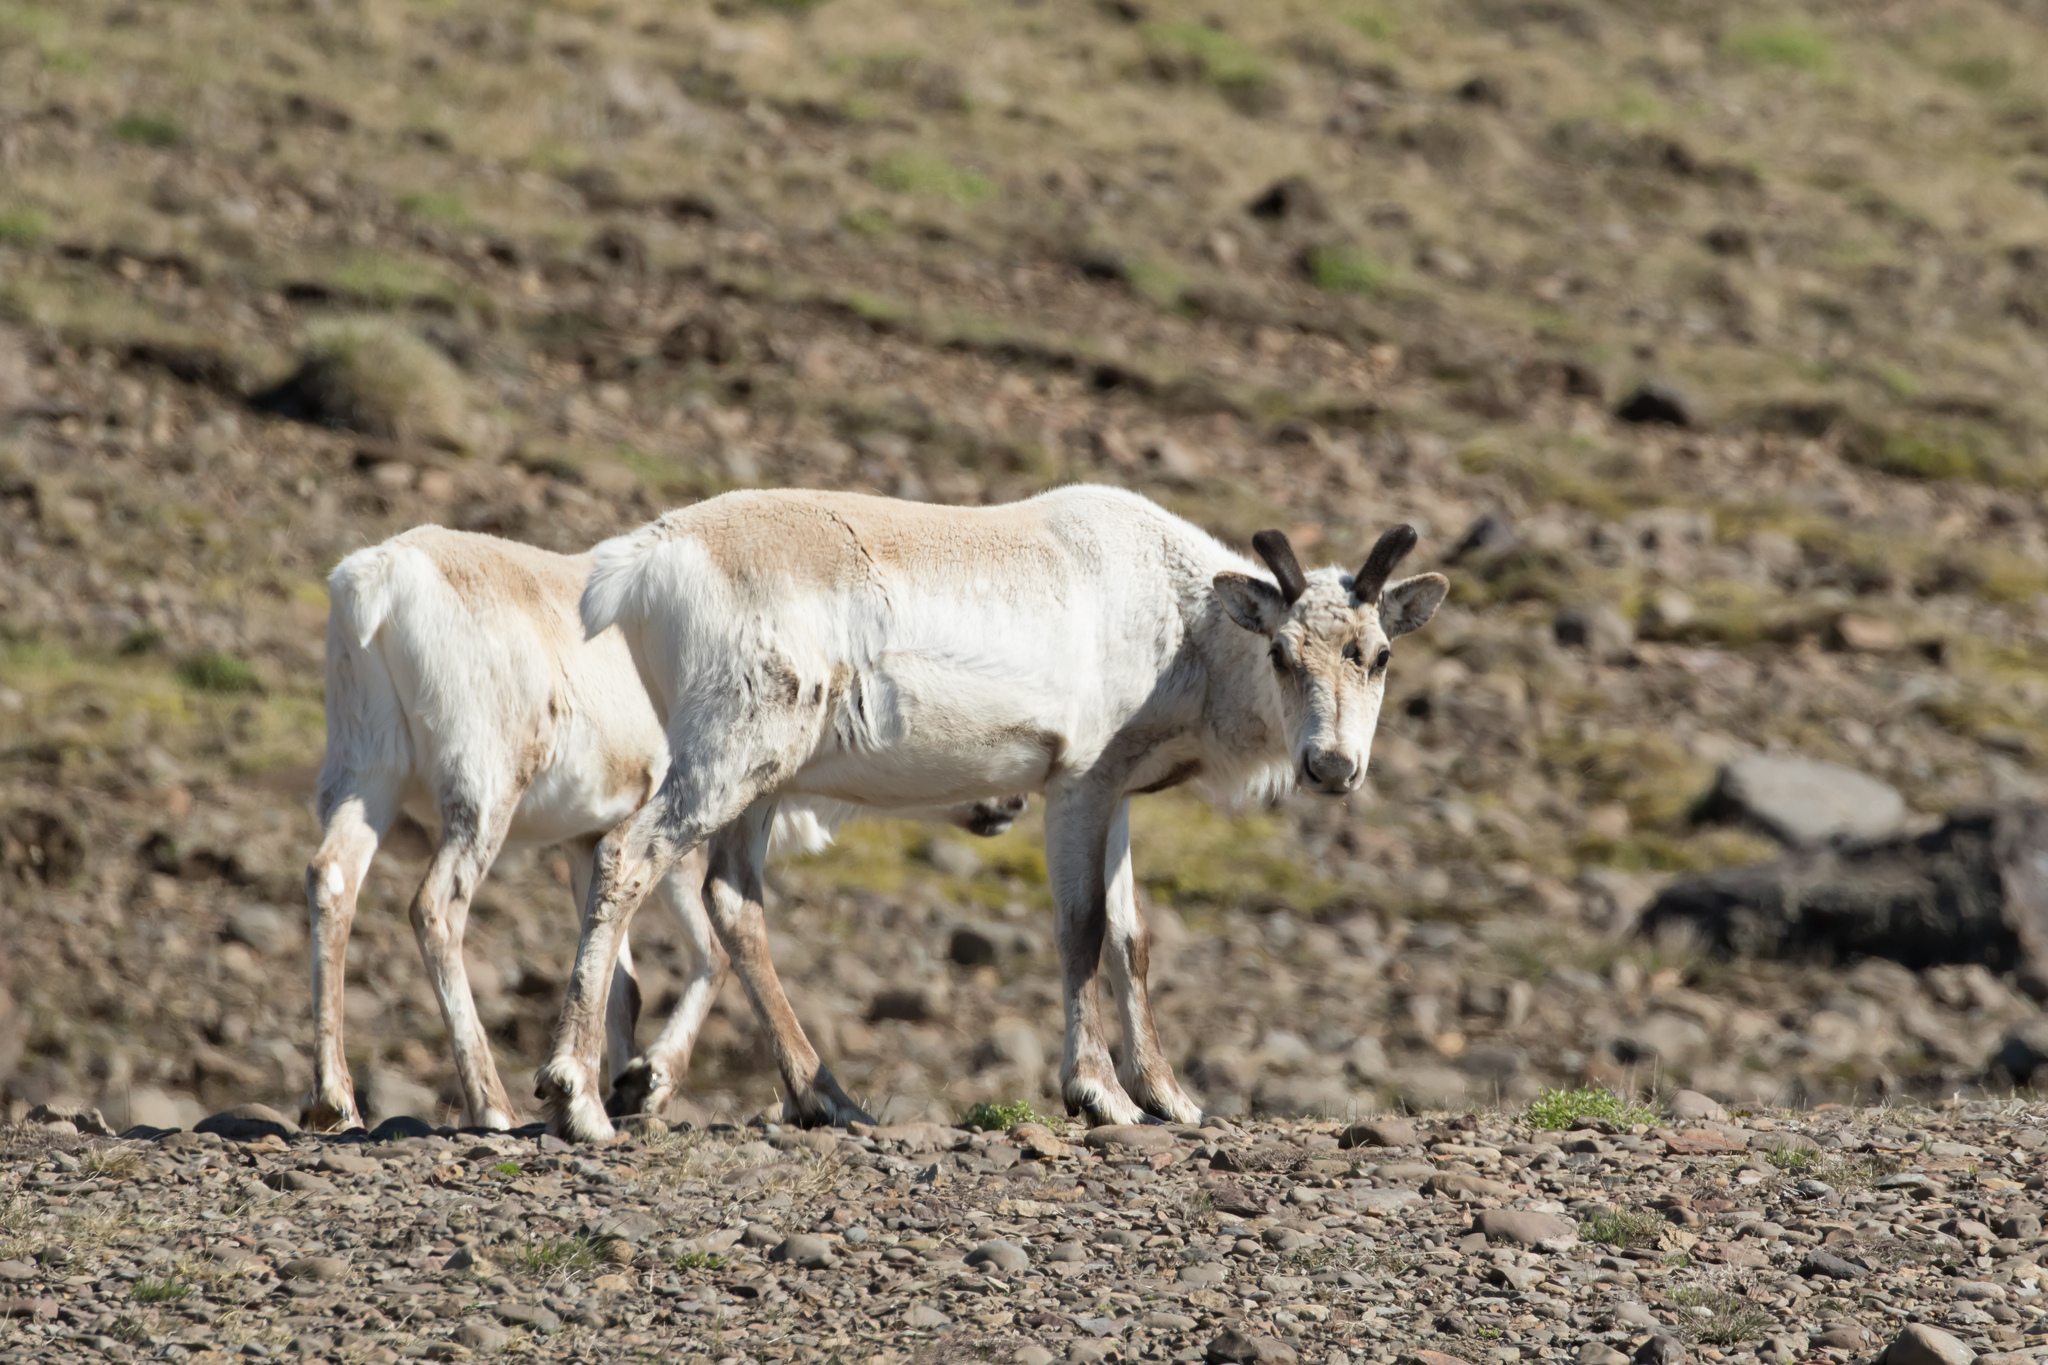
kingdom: Animalia
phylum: Chordata
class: Mammalia
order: Artiodactyla
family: Cervidae
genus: Rangifer
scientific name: Rangifer tarandus
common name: Reindeer
